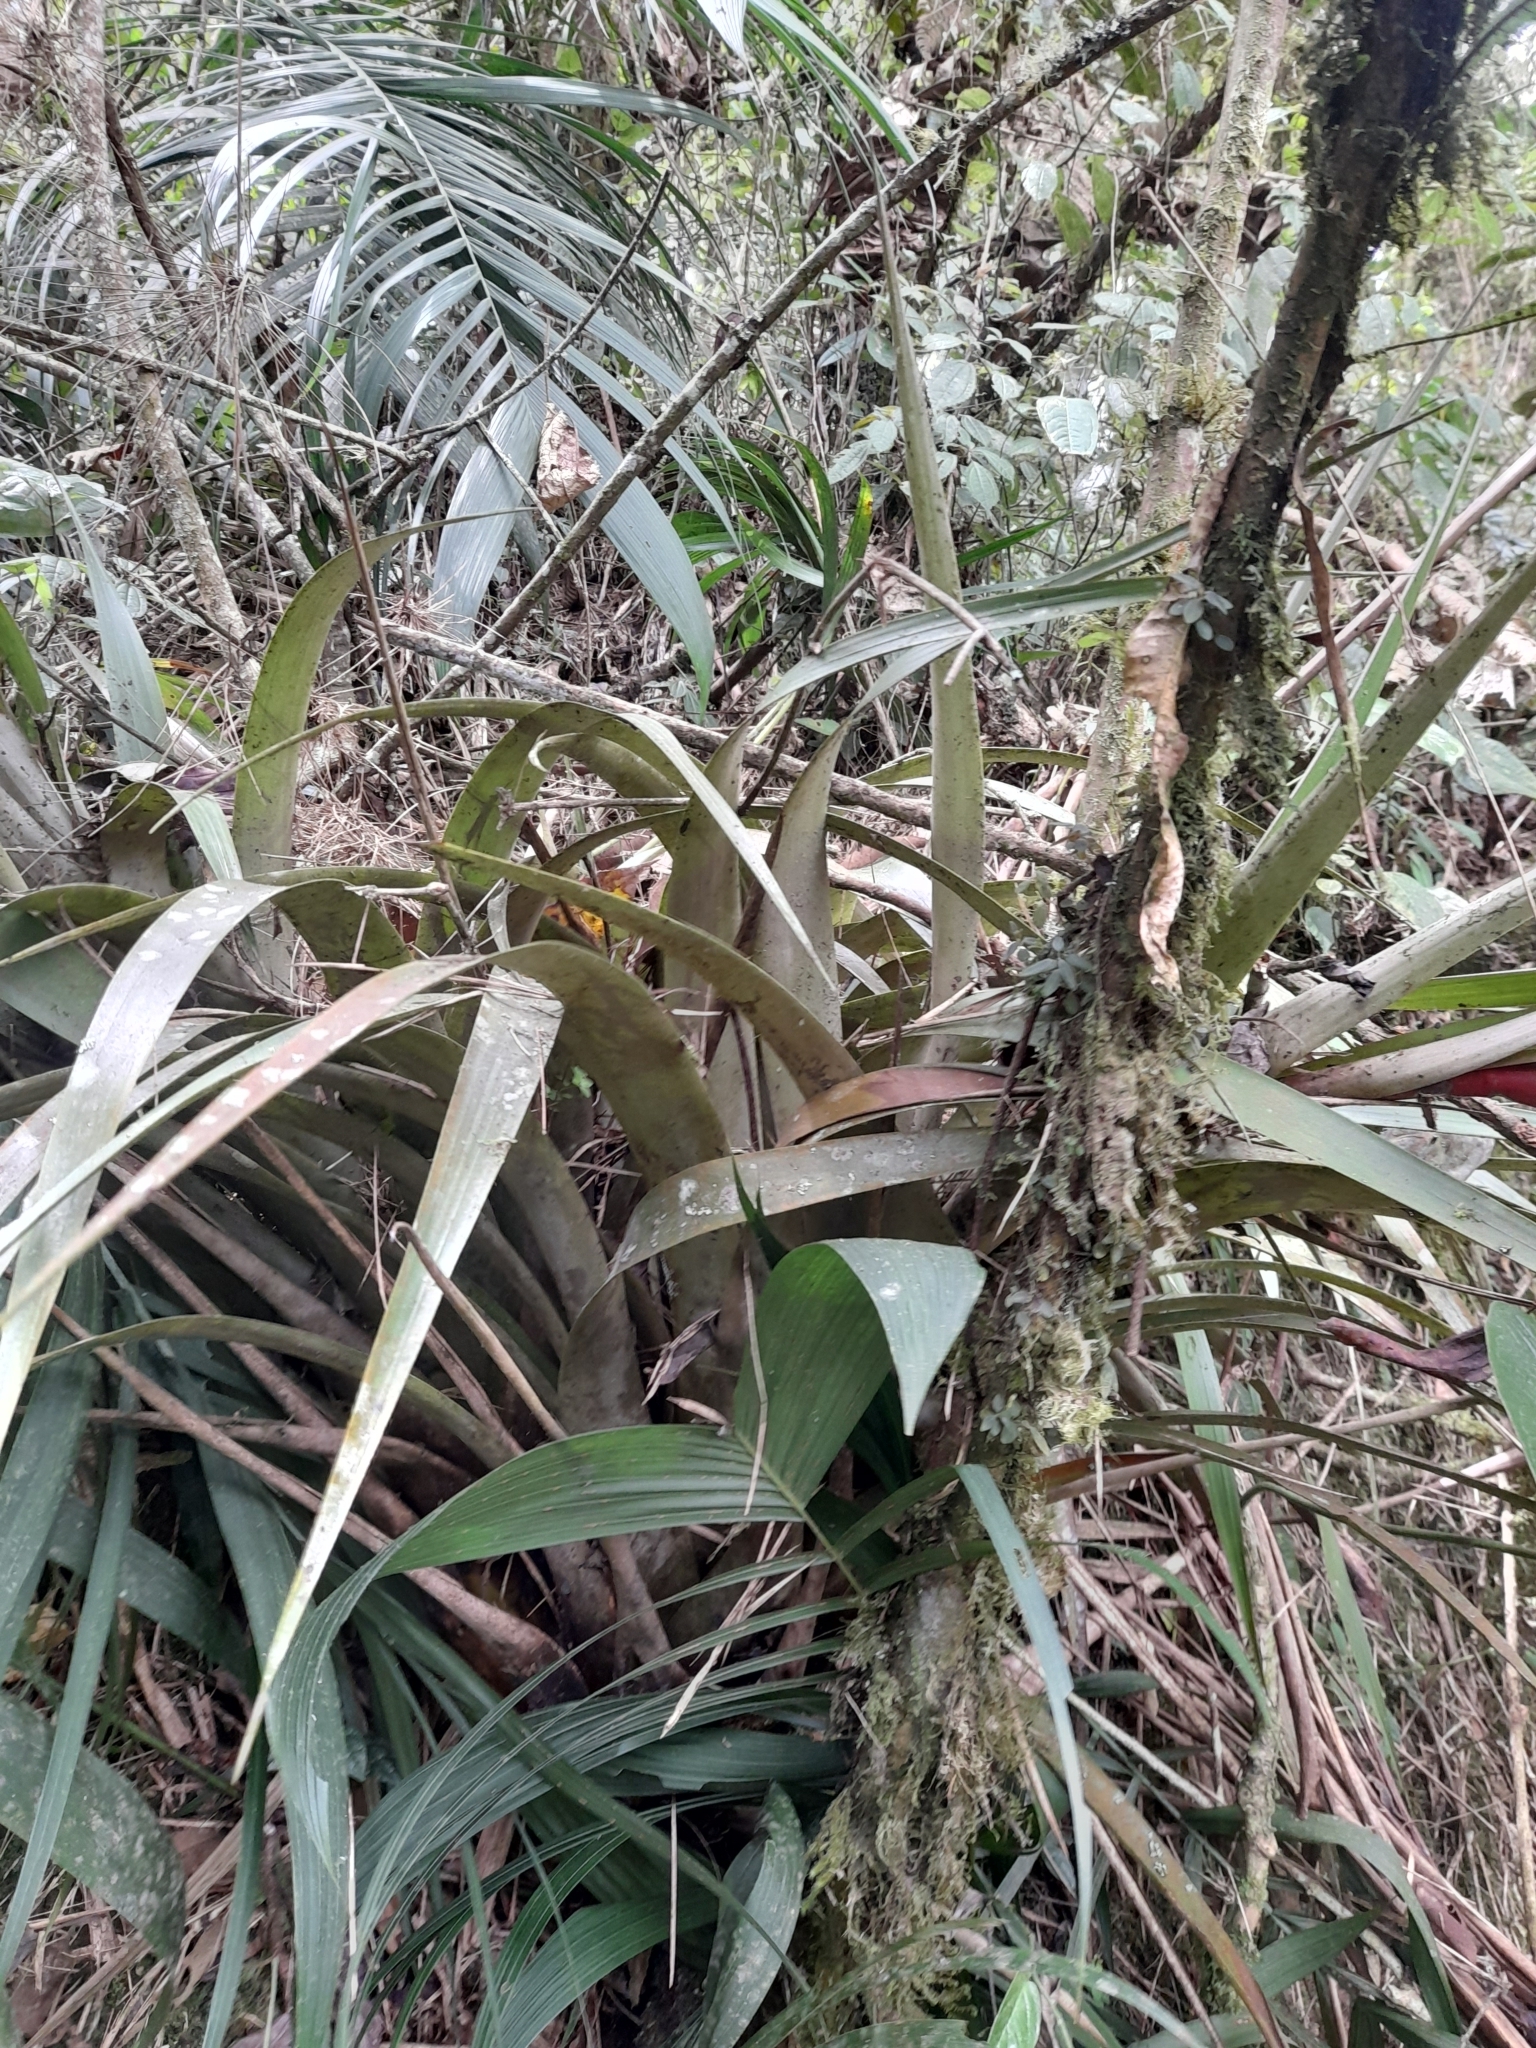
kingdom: Plantae
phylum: Tracheophyta
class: Liliopsida
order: Poales
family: Bromeliaceae
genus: Tillandsia
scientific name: Tillandsia didistichoides
